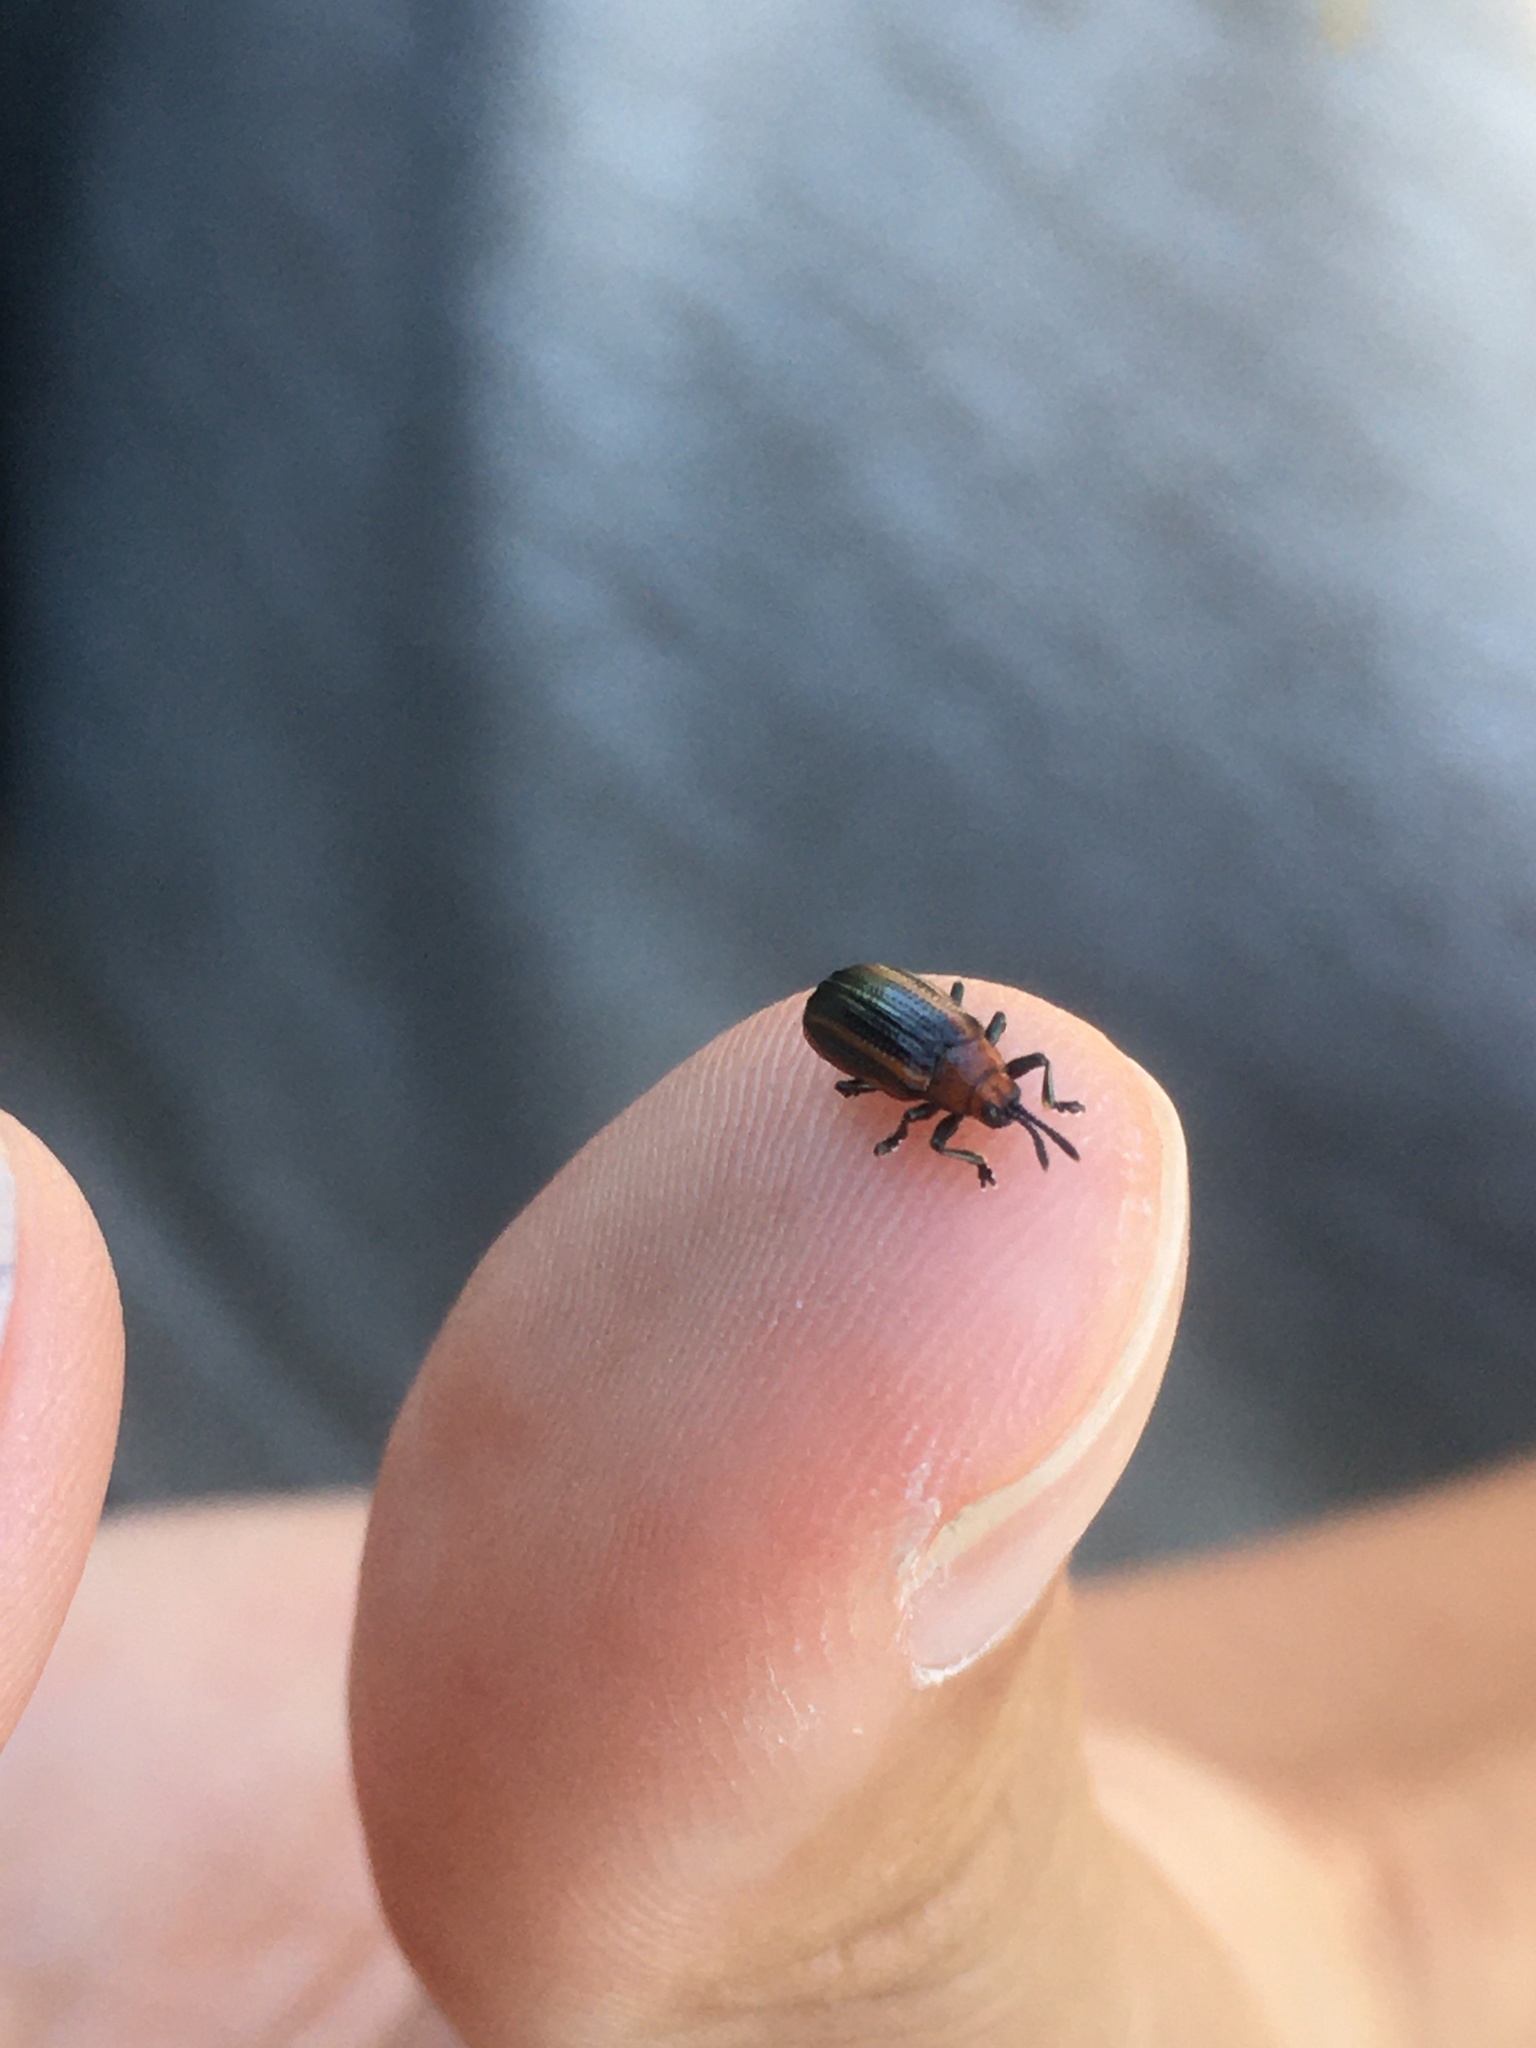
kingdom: Animalia
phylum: Arthropoda
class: Insecta
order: Coleoptera
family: Chrysomelidae
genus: Microrhopala
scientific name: Microrhopala vittata
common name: Goldenrod leaf miner beetle
